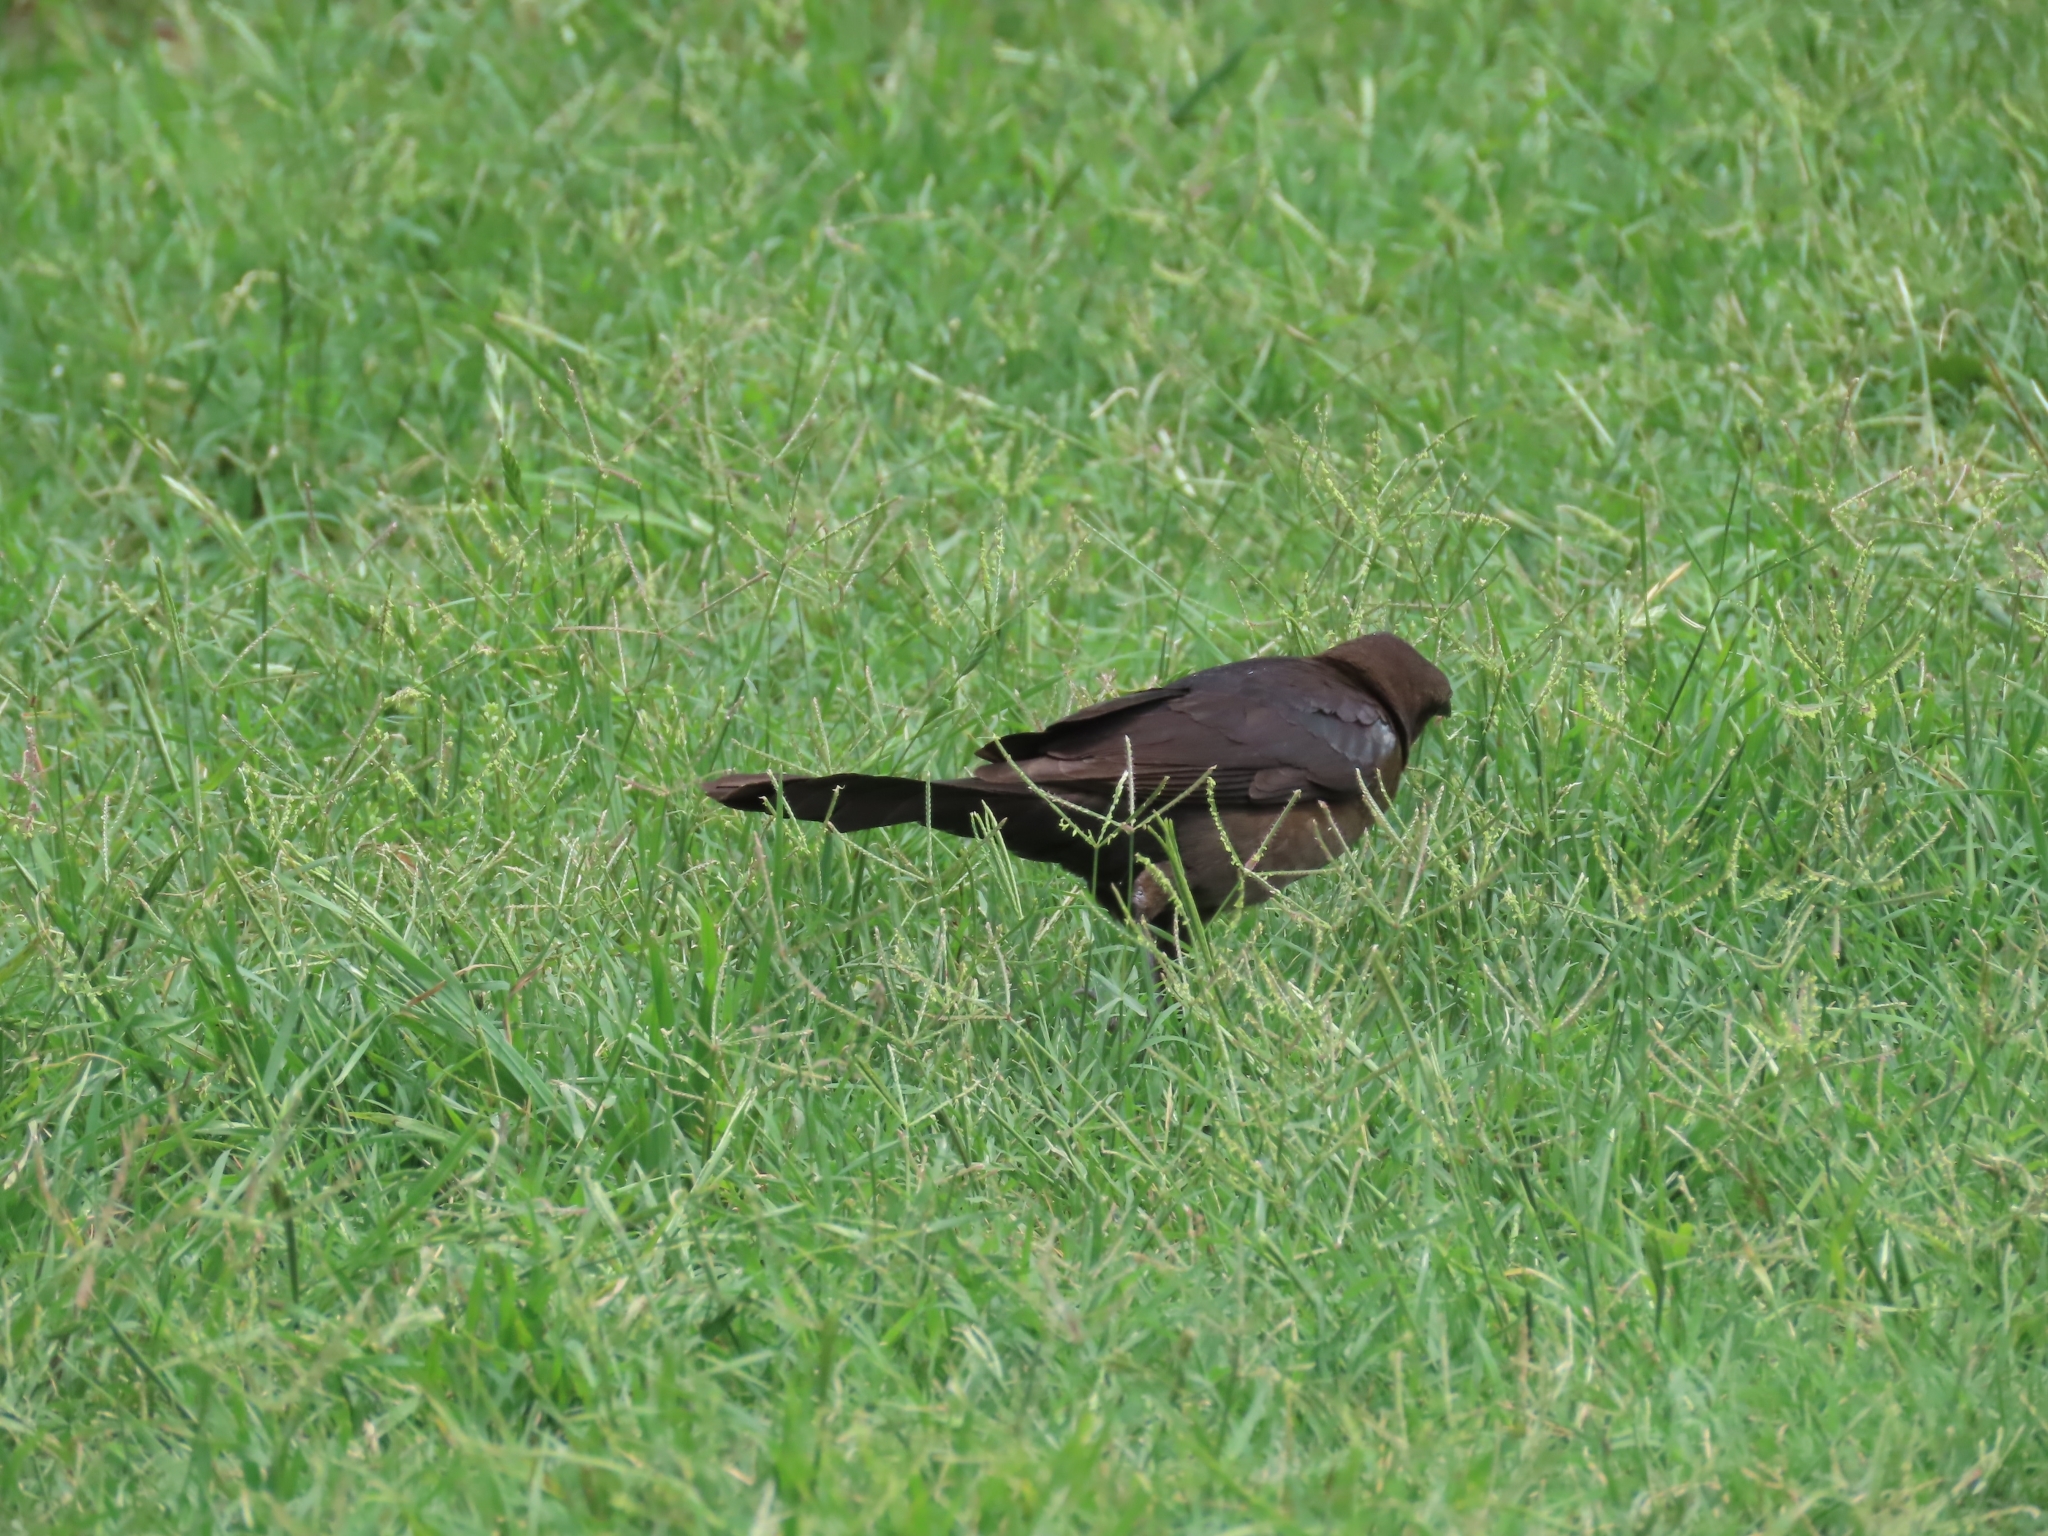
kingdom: Animalia
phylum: Chordata
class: Aves
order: Passeriformes
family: Icteridae
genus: Quiscalus
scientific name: Quiscalus mexicanus
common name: Great-tailed grackle
